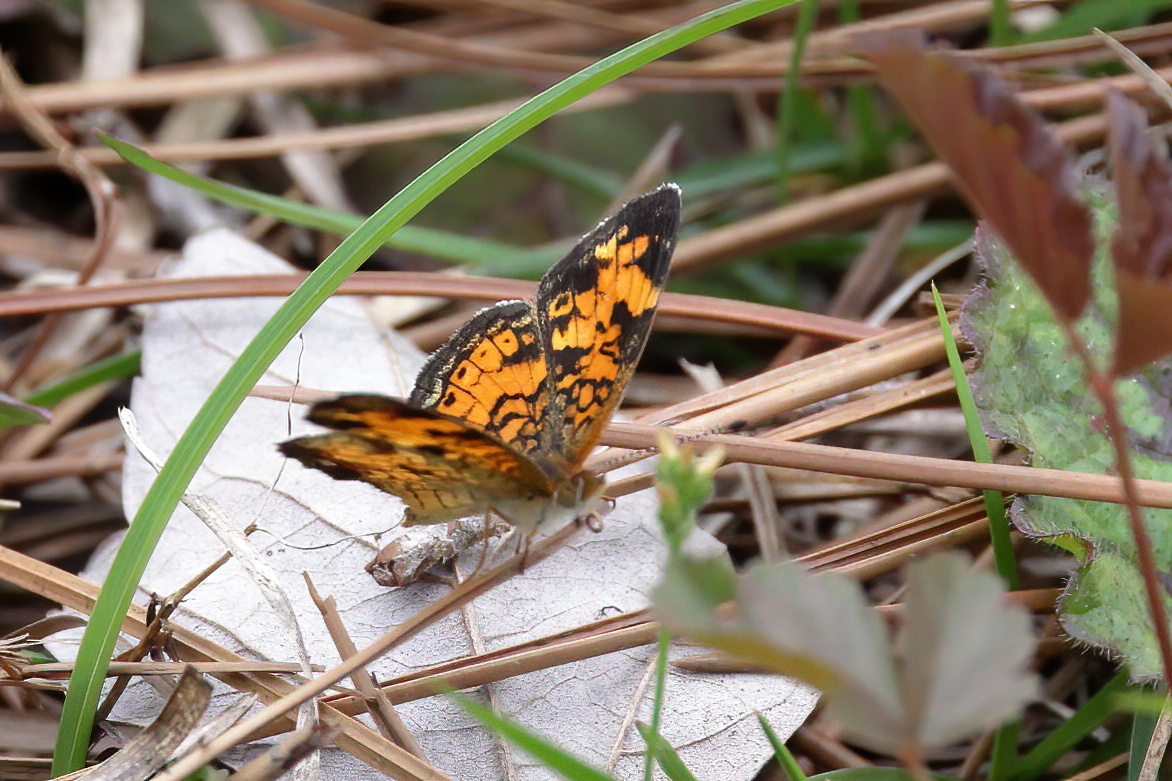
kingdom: Animalia
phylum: Arthropoda
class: Insecta
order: Lepidoptera
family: Nymphalidae
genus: Phyciodes
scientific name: Phyciodes tharos
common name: Pearl crescent
